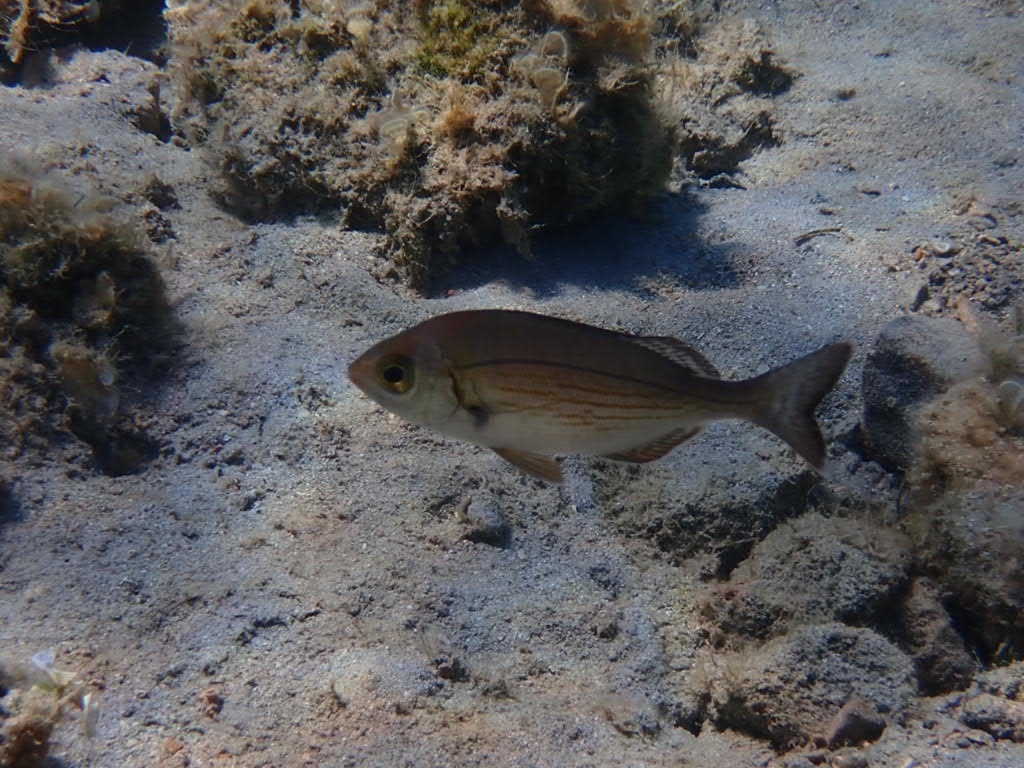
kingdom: Animalia
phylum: Chordata
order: Perciformes
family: Sparidae
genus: Spondyliosoma
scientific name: Spondyliosoma cantharus
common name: Black seabream
